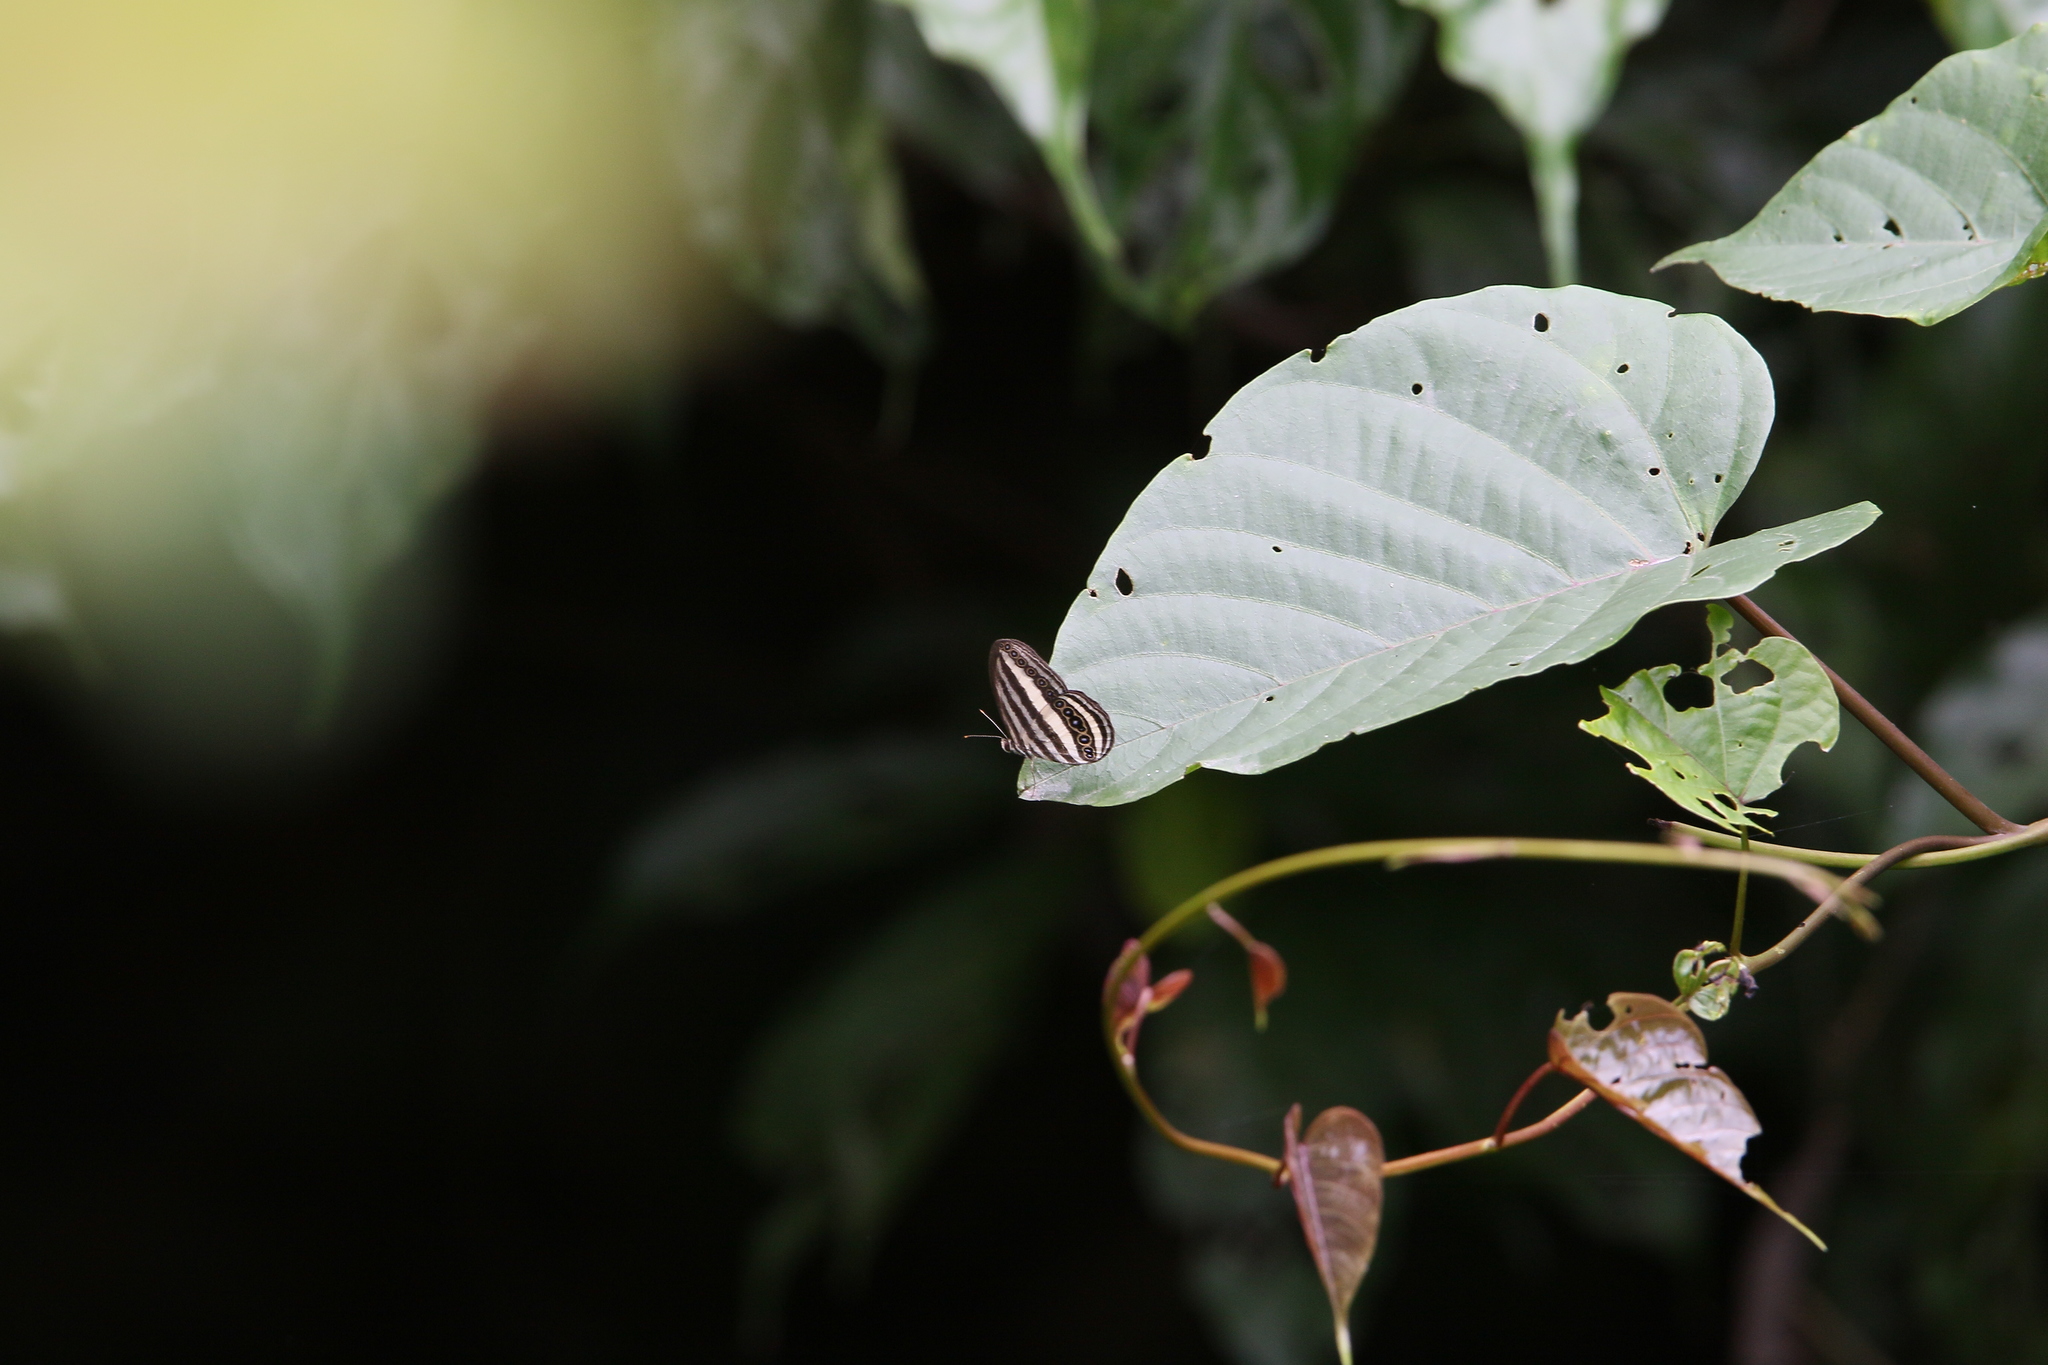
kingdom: Animalia
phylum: Arthropoda
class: Insecta
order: Lepidoptera
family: Nymphalidae
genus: Ragadia
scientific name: Ragadia crisilda
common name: White-striped ringlet
